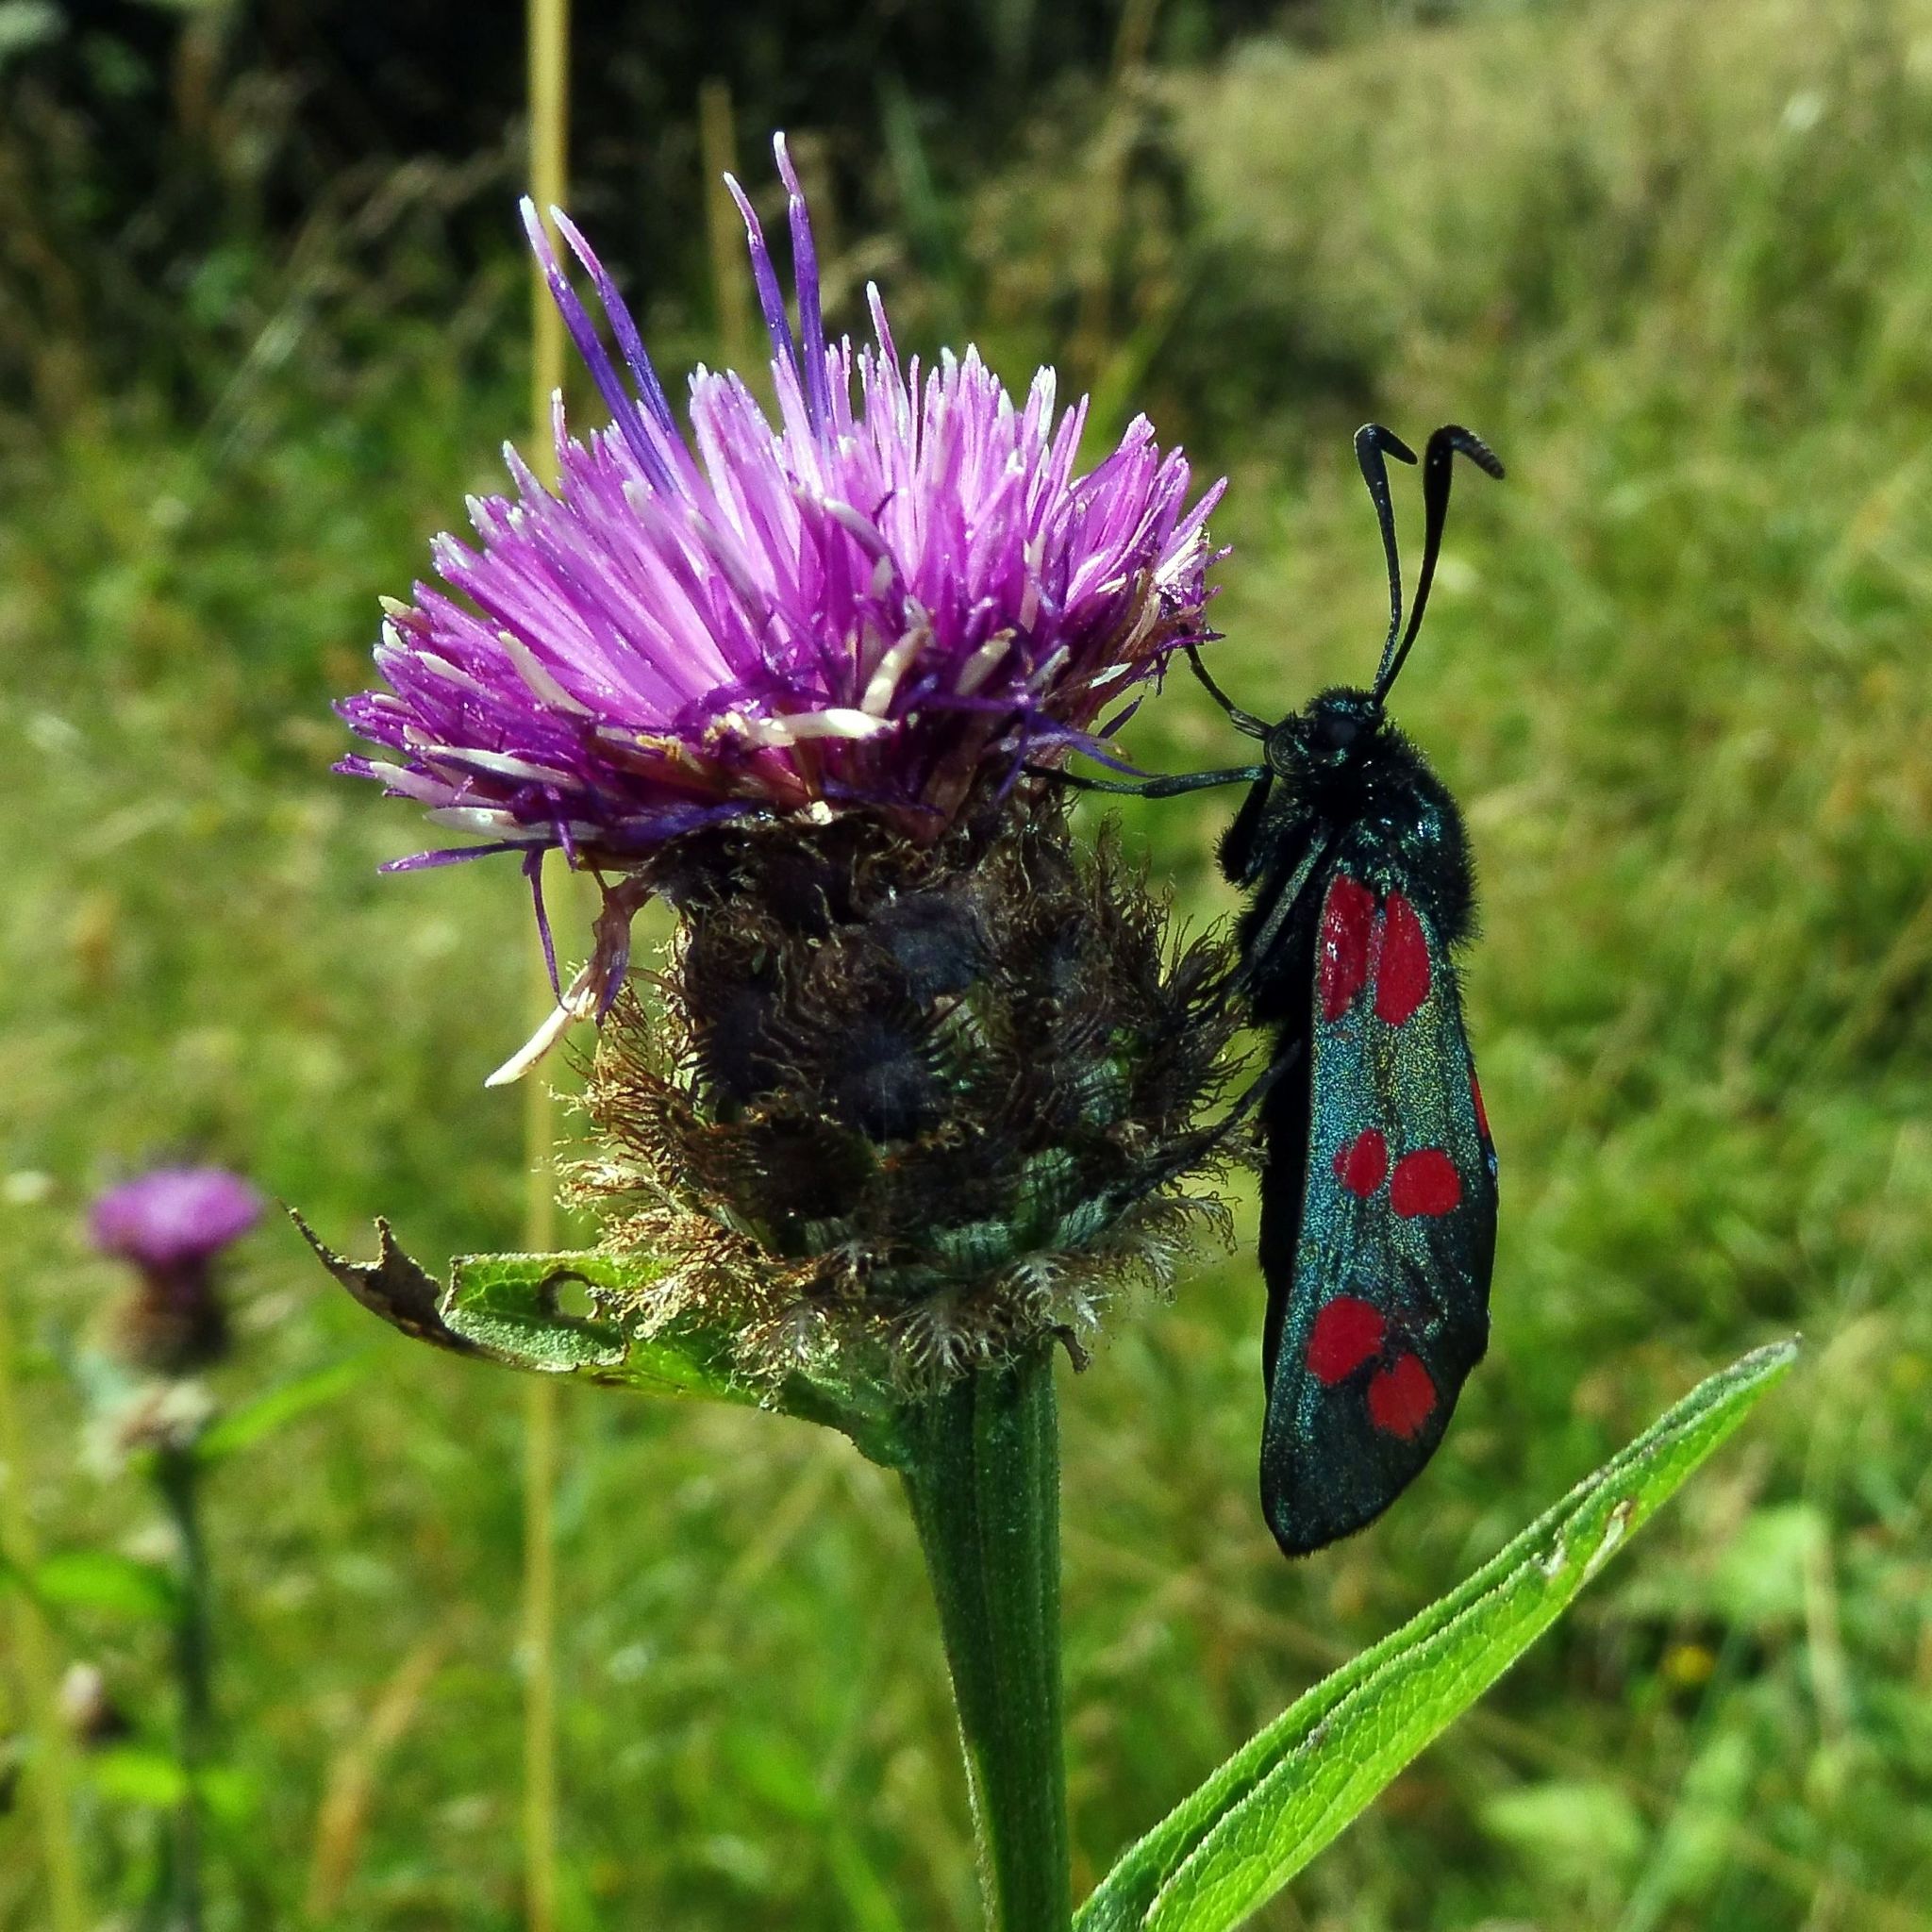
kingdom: Animalia
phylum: Arthropoda
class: Insecta
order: Lepidoptera
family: Zygaenidae
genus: Zygaena
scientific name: Zygaena filipendulae
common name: Six-spot burnet
